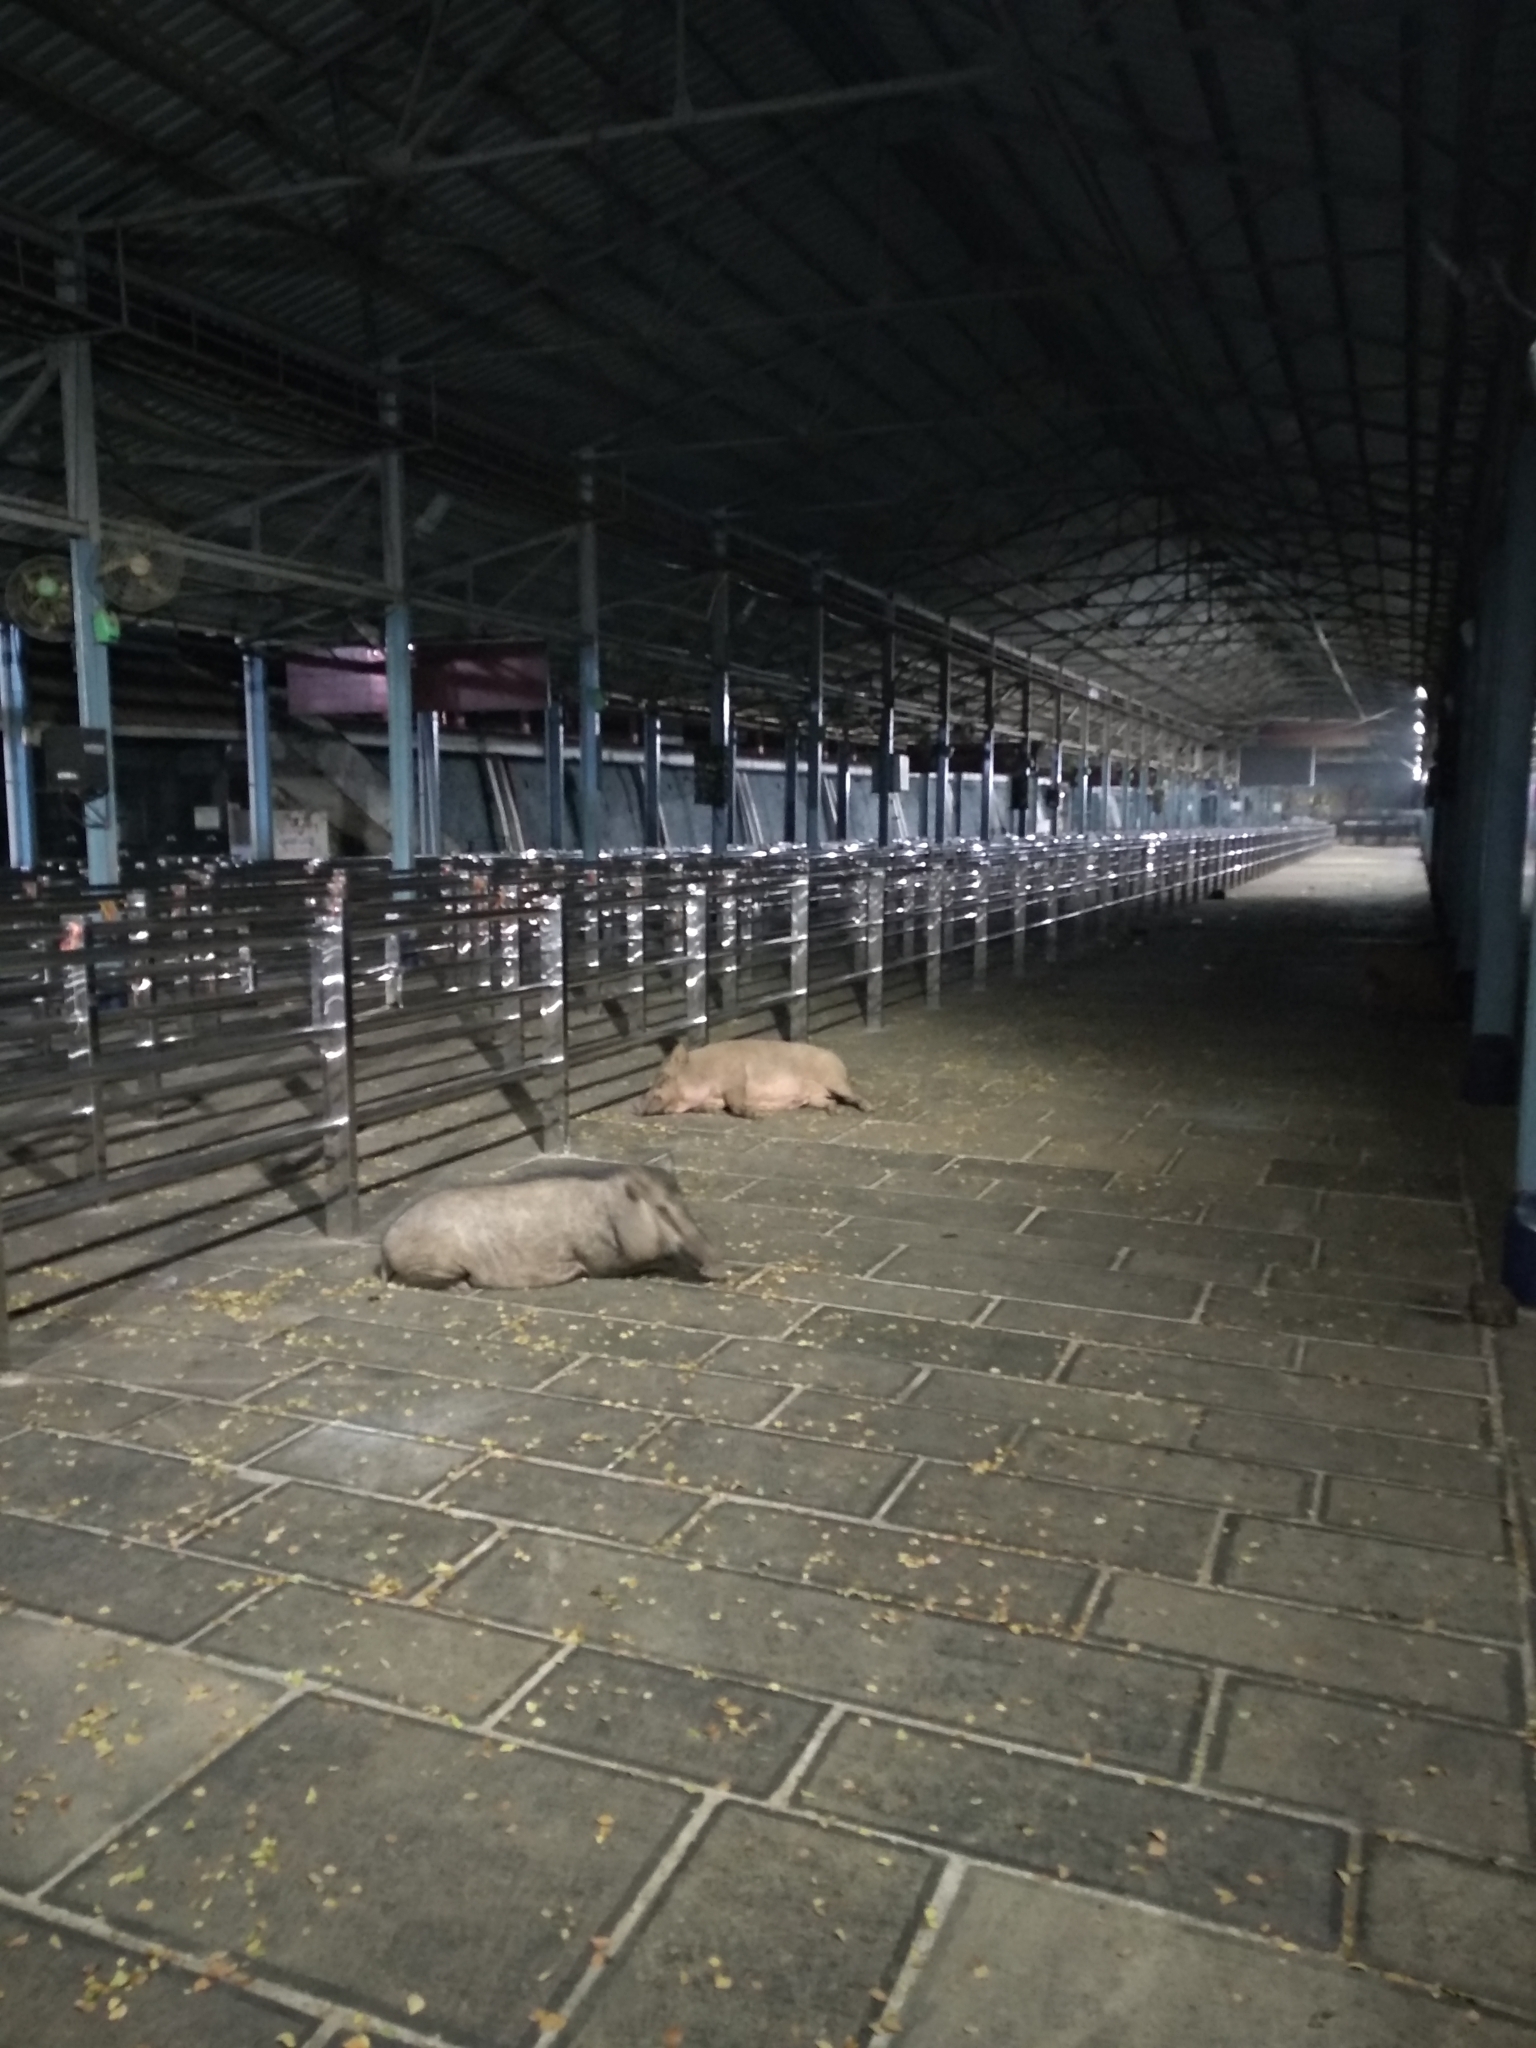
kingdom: Animalia
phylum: Chordata
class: Mammalia
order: Artiodactyla
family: Suidae
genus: Sus
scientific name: Sus scrofa
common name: Wild boar
